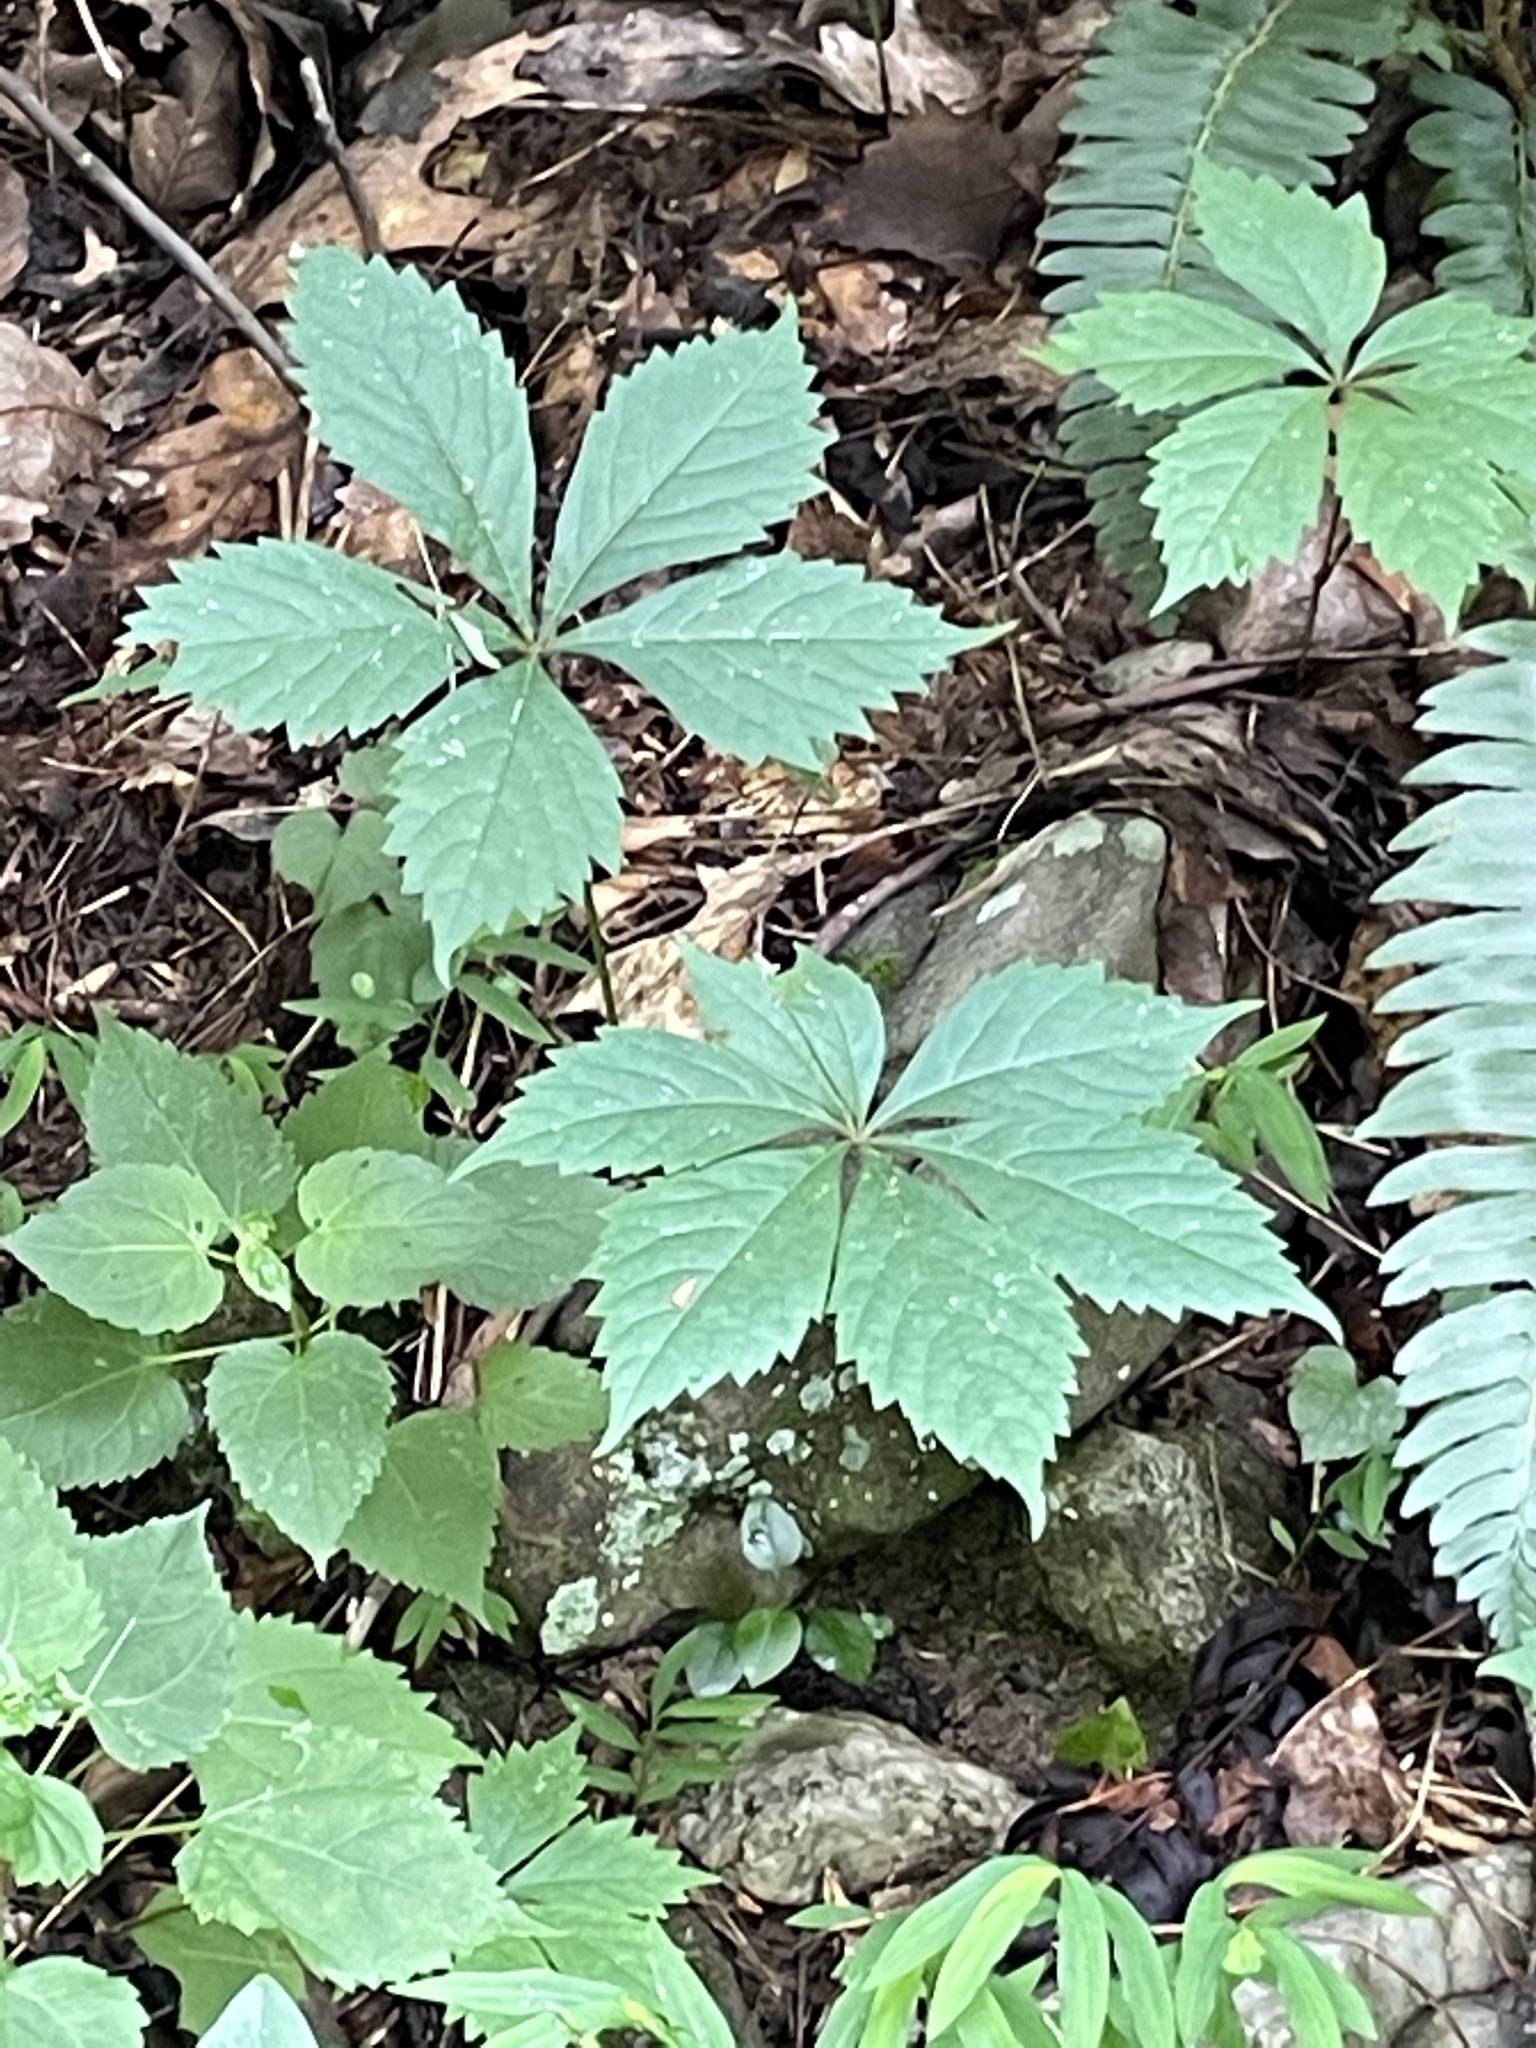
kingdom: Plantae
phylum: Tracheophyta
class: Magnoliopsida
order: Vitales
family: Vitaceae
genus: Parthenocissus
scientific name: Parthenocissus quinquefolia
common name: Virginia-creeper
